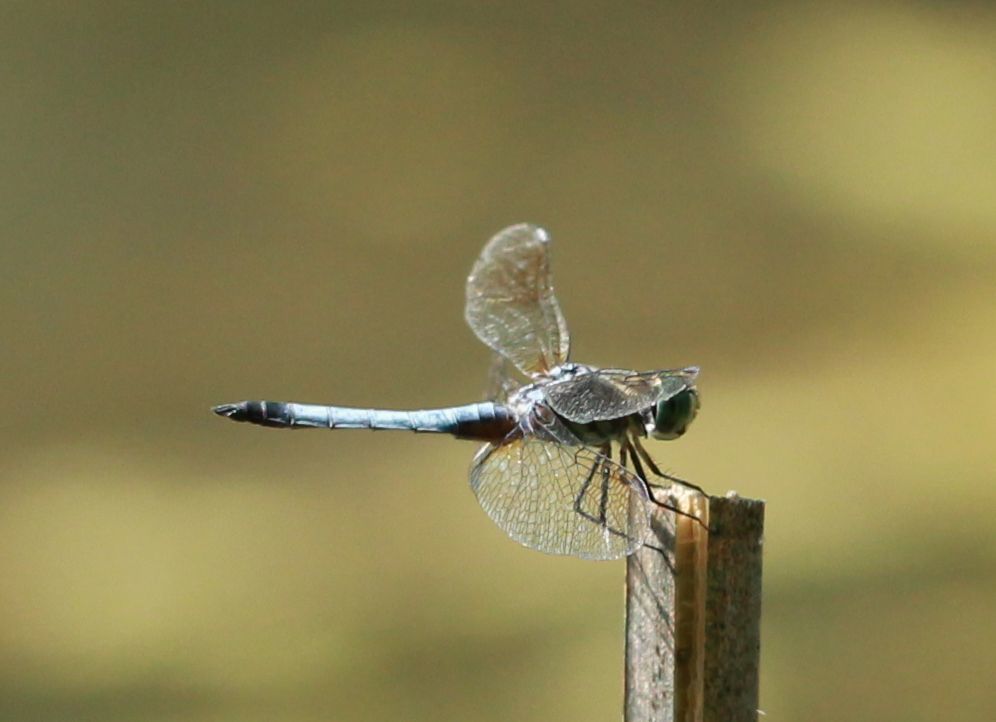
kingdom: Animalia
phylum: Arthropoda
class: Insecta
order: Odonata
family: Libellulidae
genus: Pachydiplax
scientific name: Pachydiplax longipennis
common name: Blue dasher
